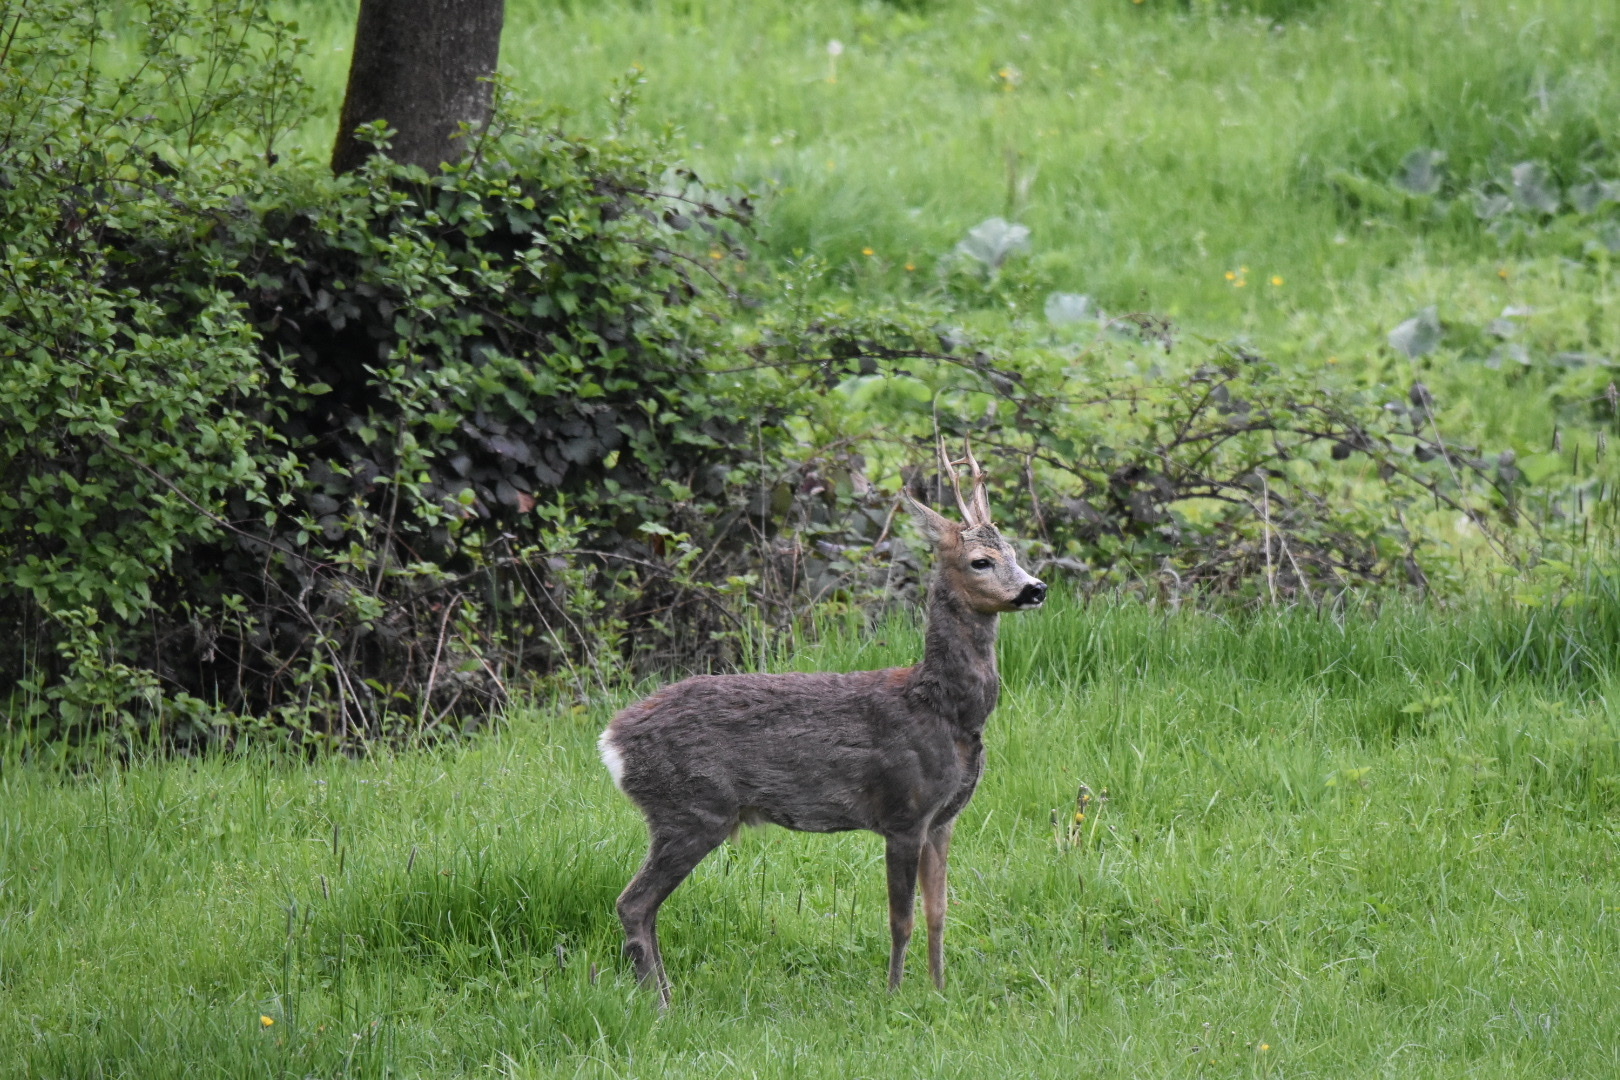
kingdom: Animalia
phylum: Chordata
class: Mammalia
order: Artiodactyla
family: Cervidae
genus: Capreolus
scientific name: Capreolus capreolus
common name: Western roe deer
